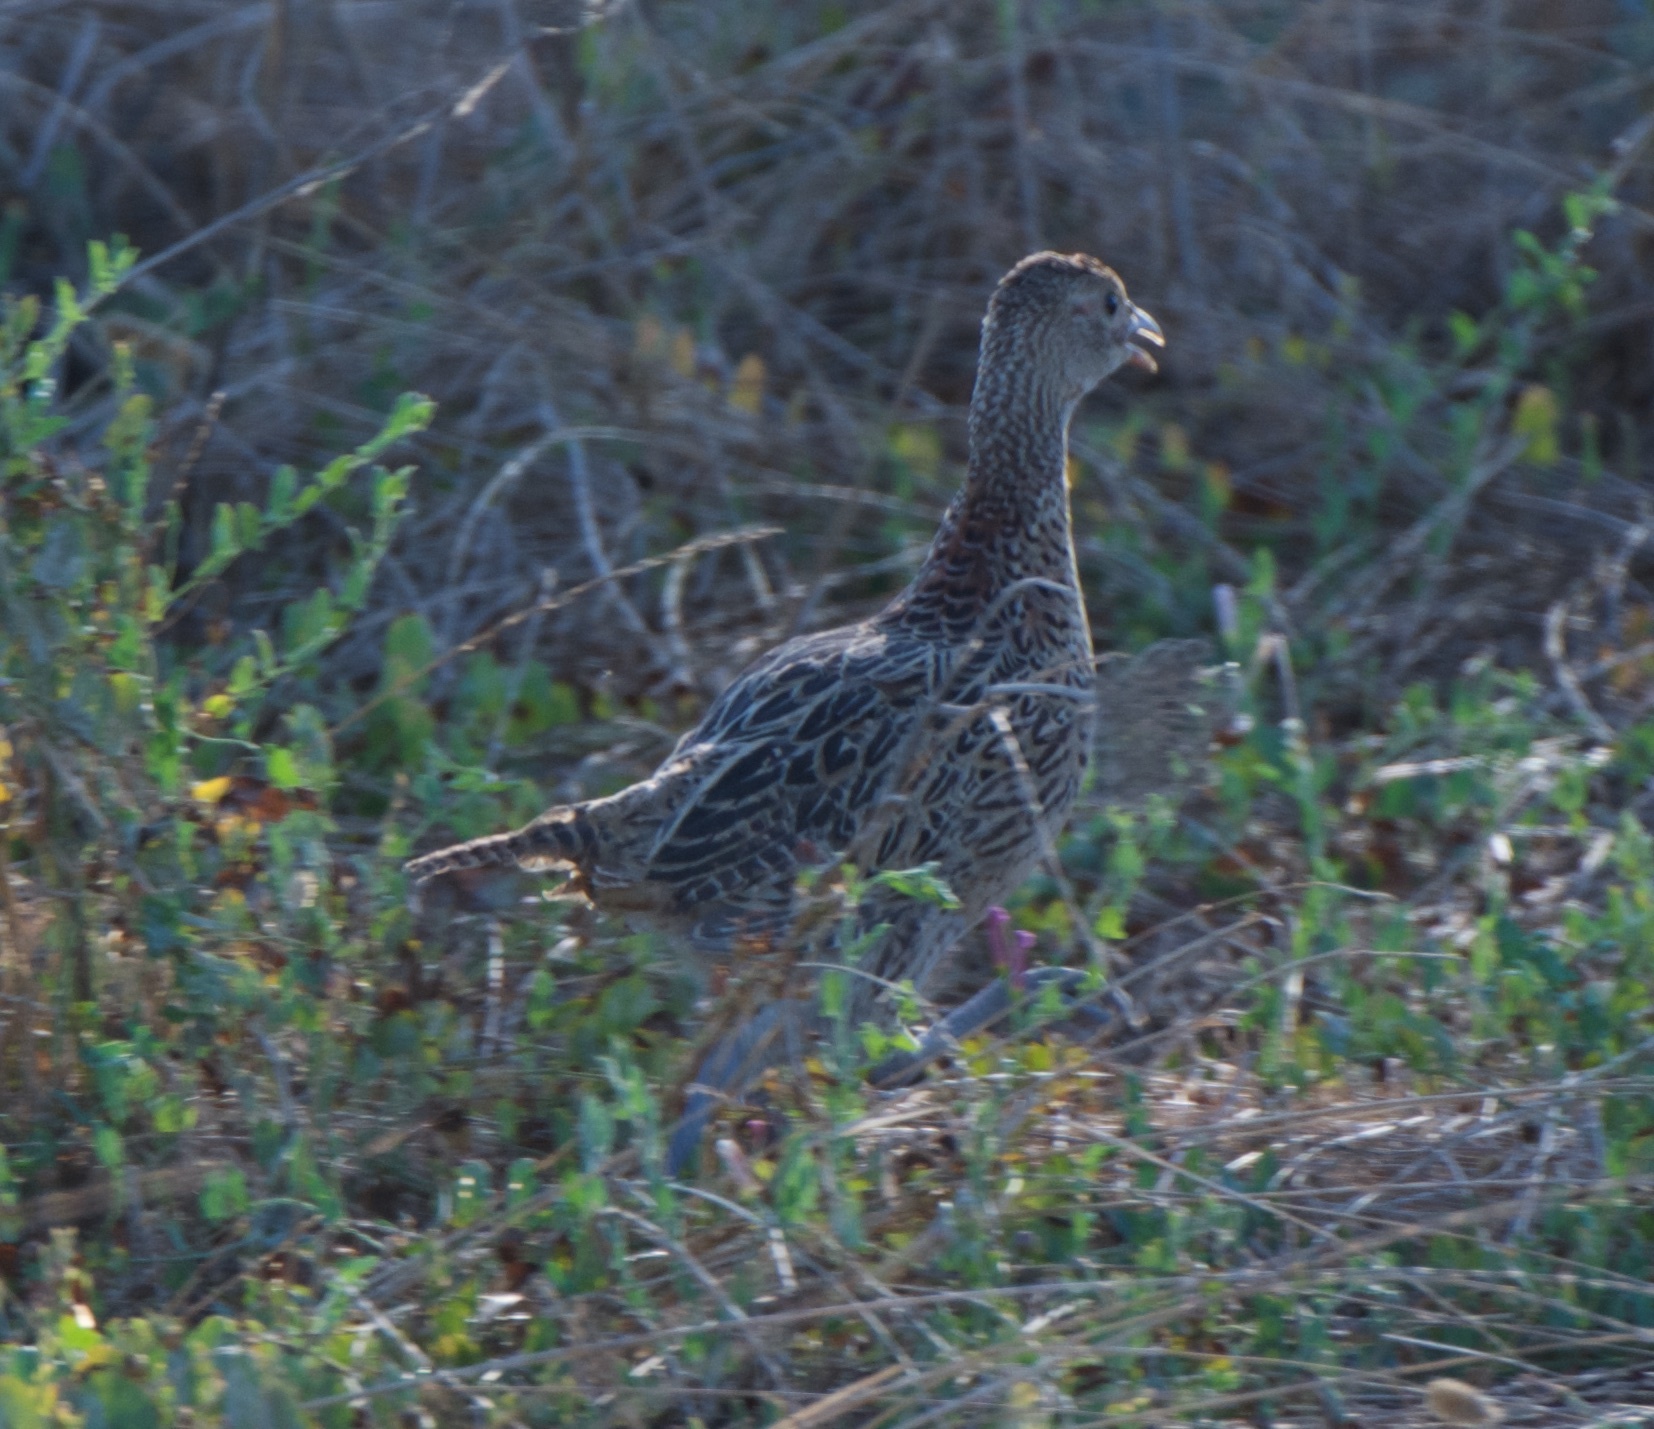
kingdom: Animalia
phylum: Chordata
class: Aves
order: Galliformes
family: Phasianidae
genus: Phasianus
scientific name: Phasianus colchicus
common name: Common pheasant
